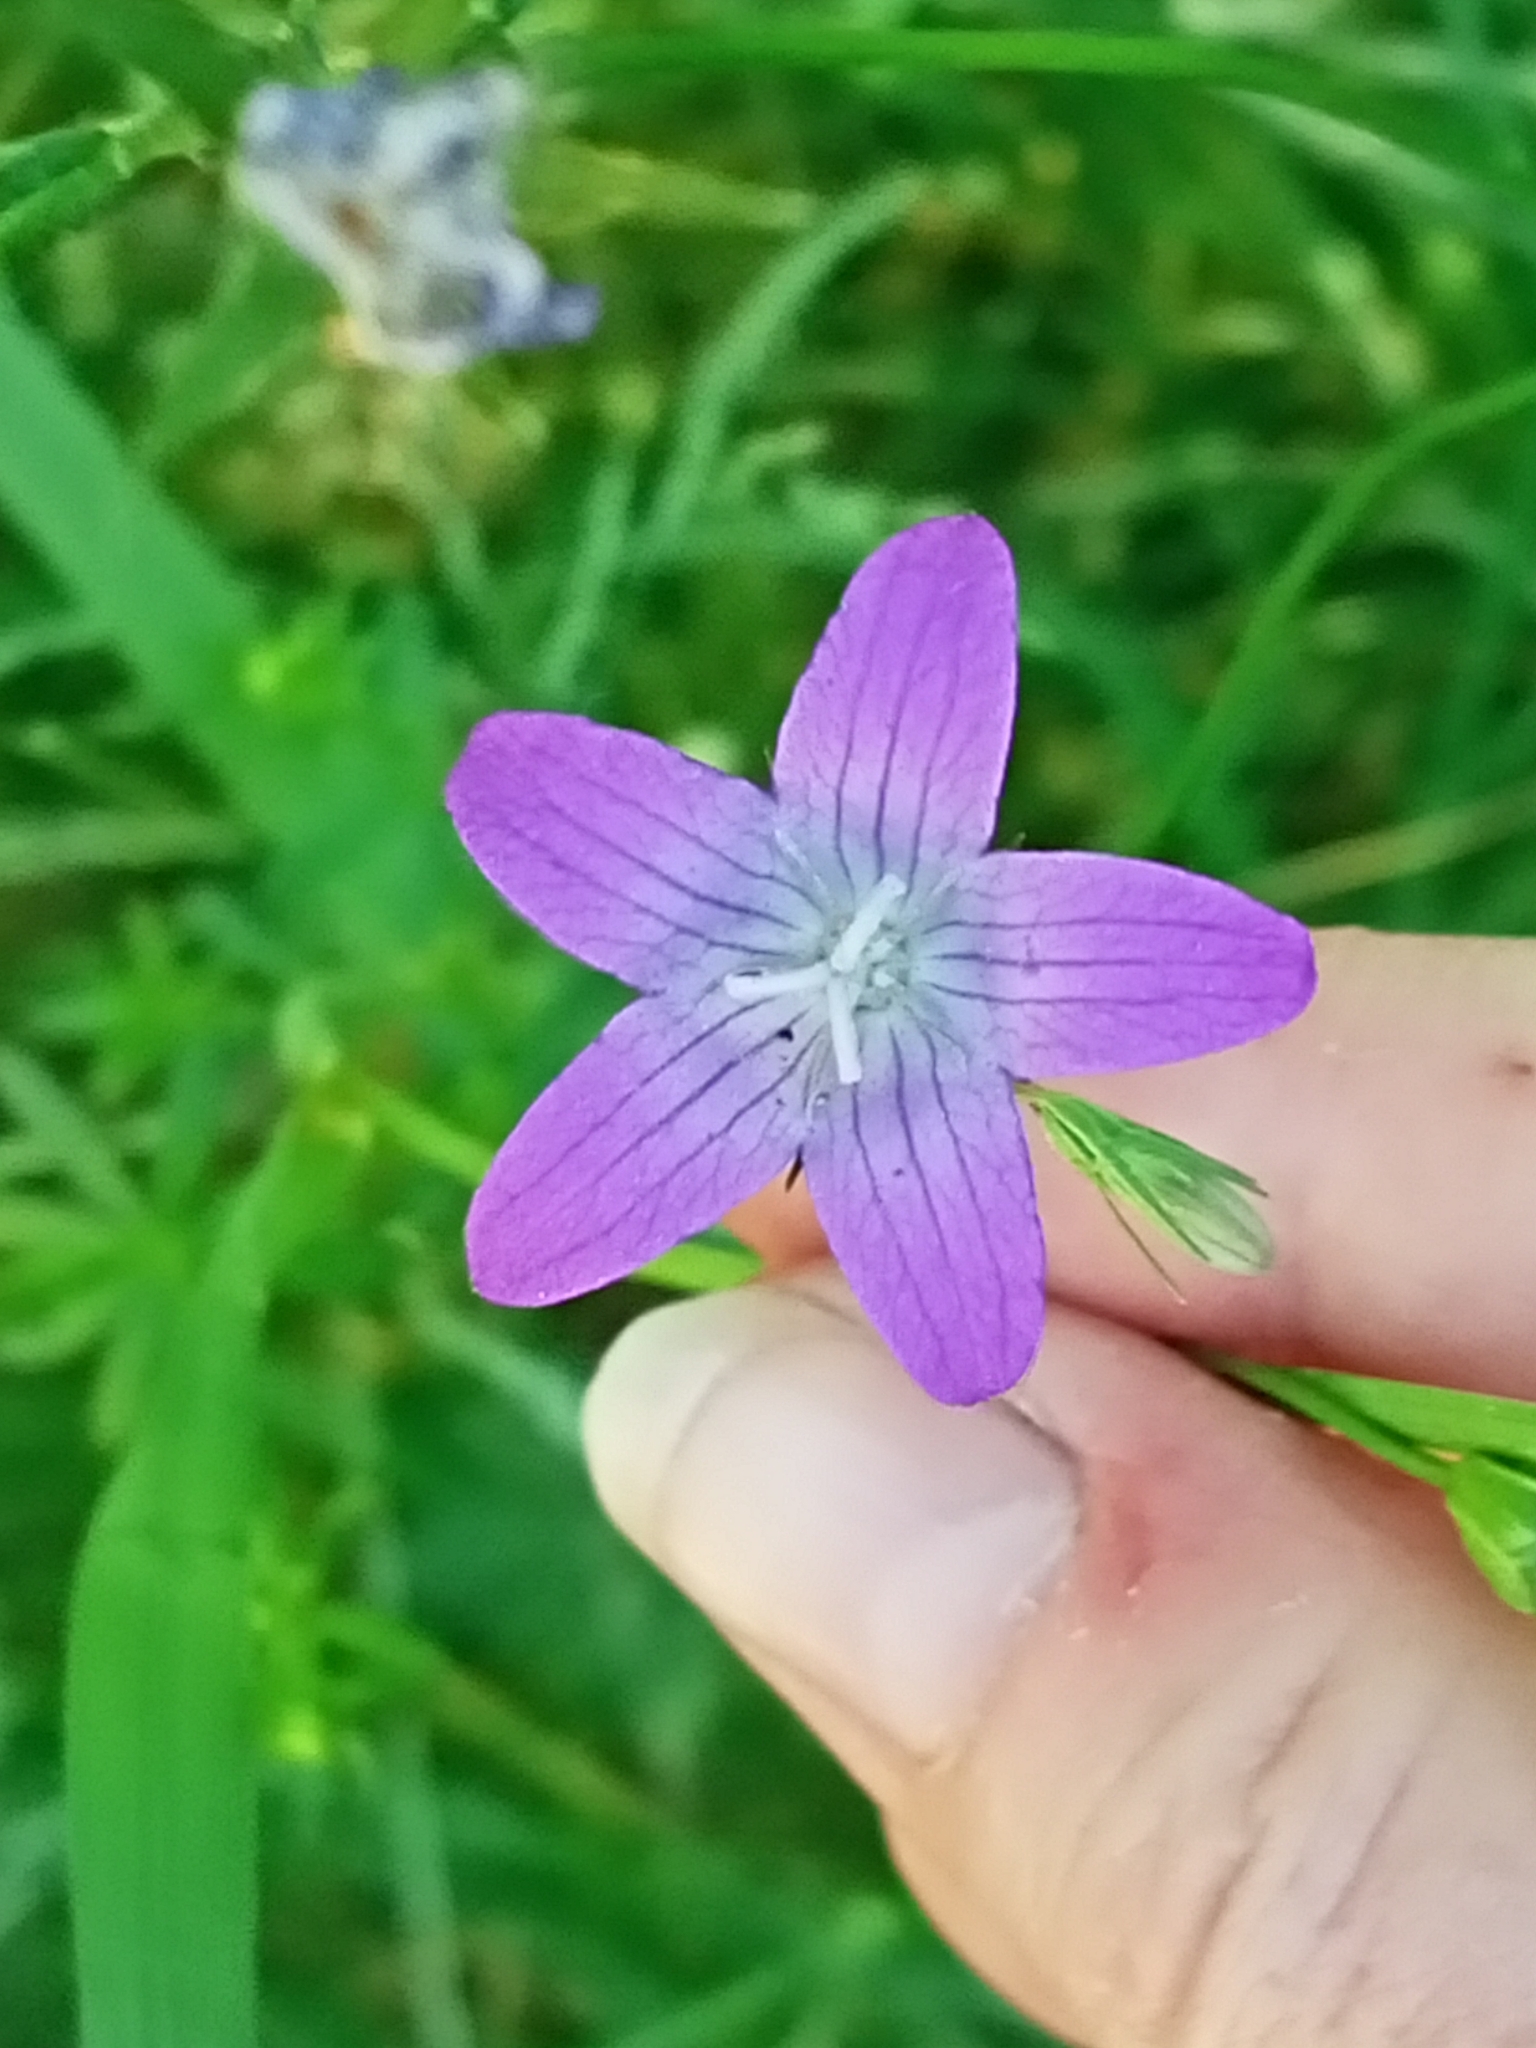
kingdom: Plantae
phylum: Tracheophyta
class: Magnoliopsida
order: Asterales
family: Campanulaceae
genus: Campanula
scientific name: Campanula patula
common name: Spreading bellflower
